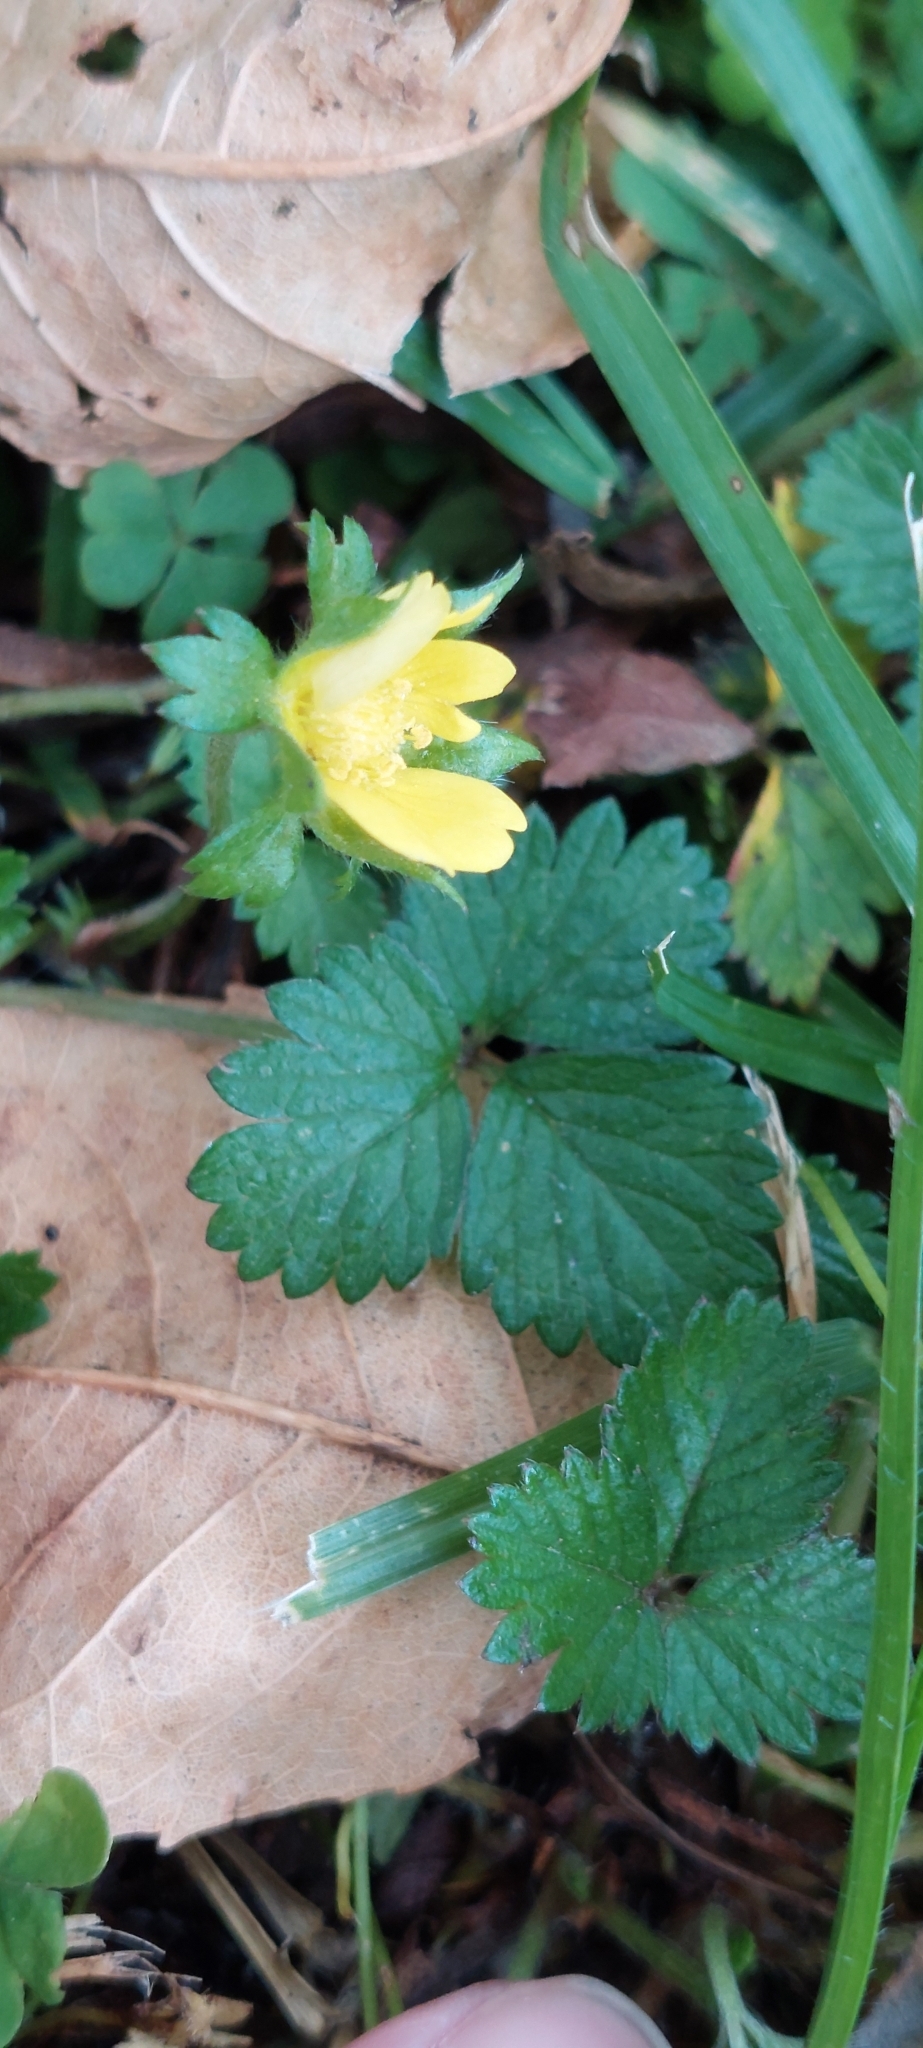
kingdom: Plantae
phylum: Tracheophyta
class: Magnoliopsida
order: Rosales
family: Rosaceae
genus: Potentilla
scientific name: Potentilla indica
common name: Yellow-flowered strawberry
